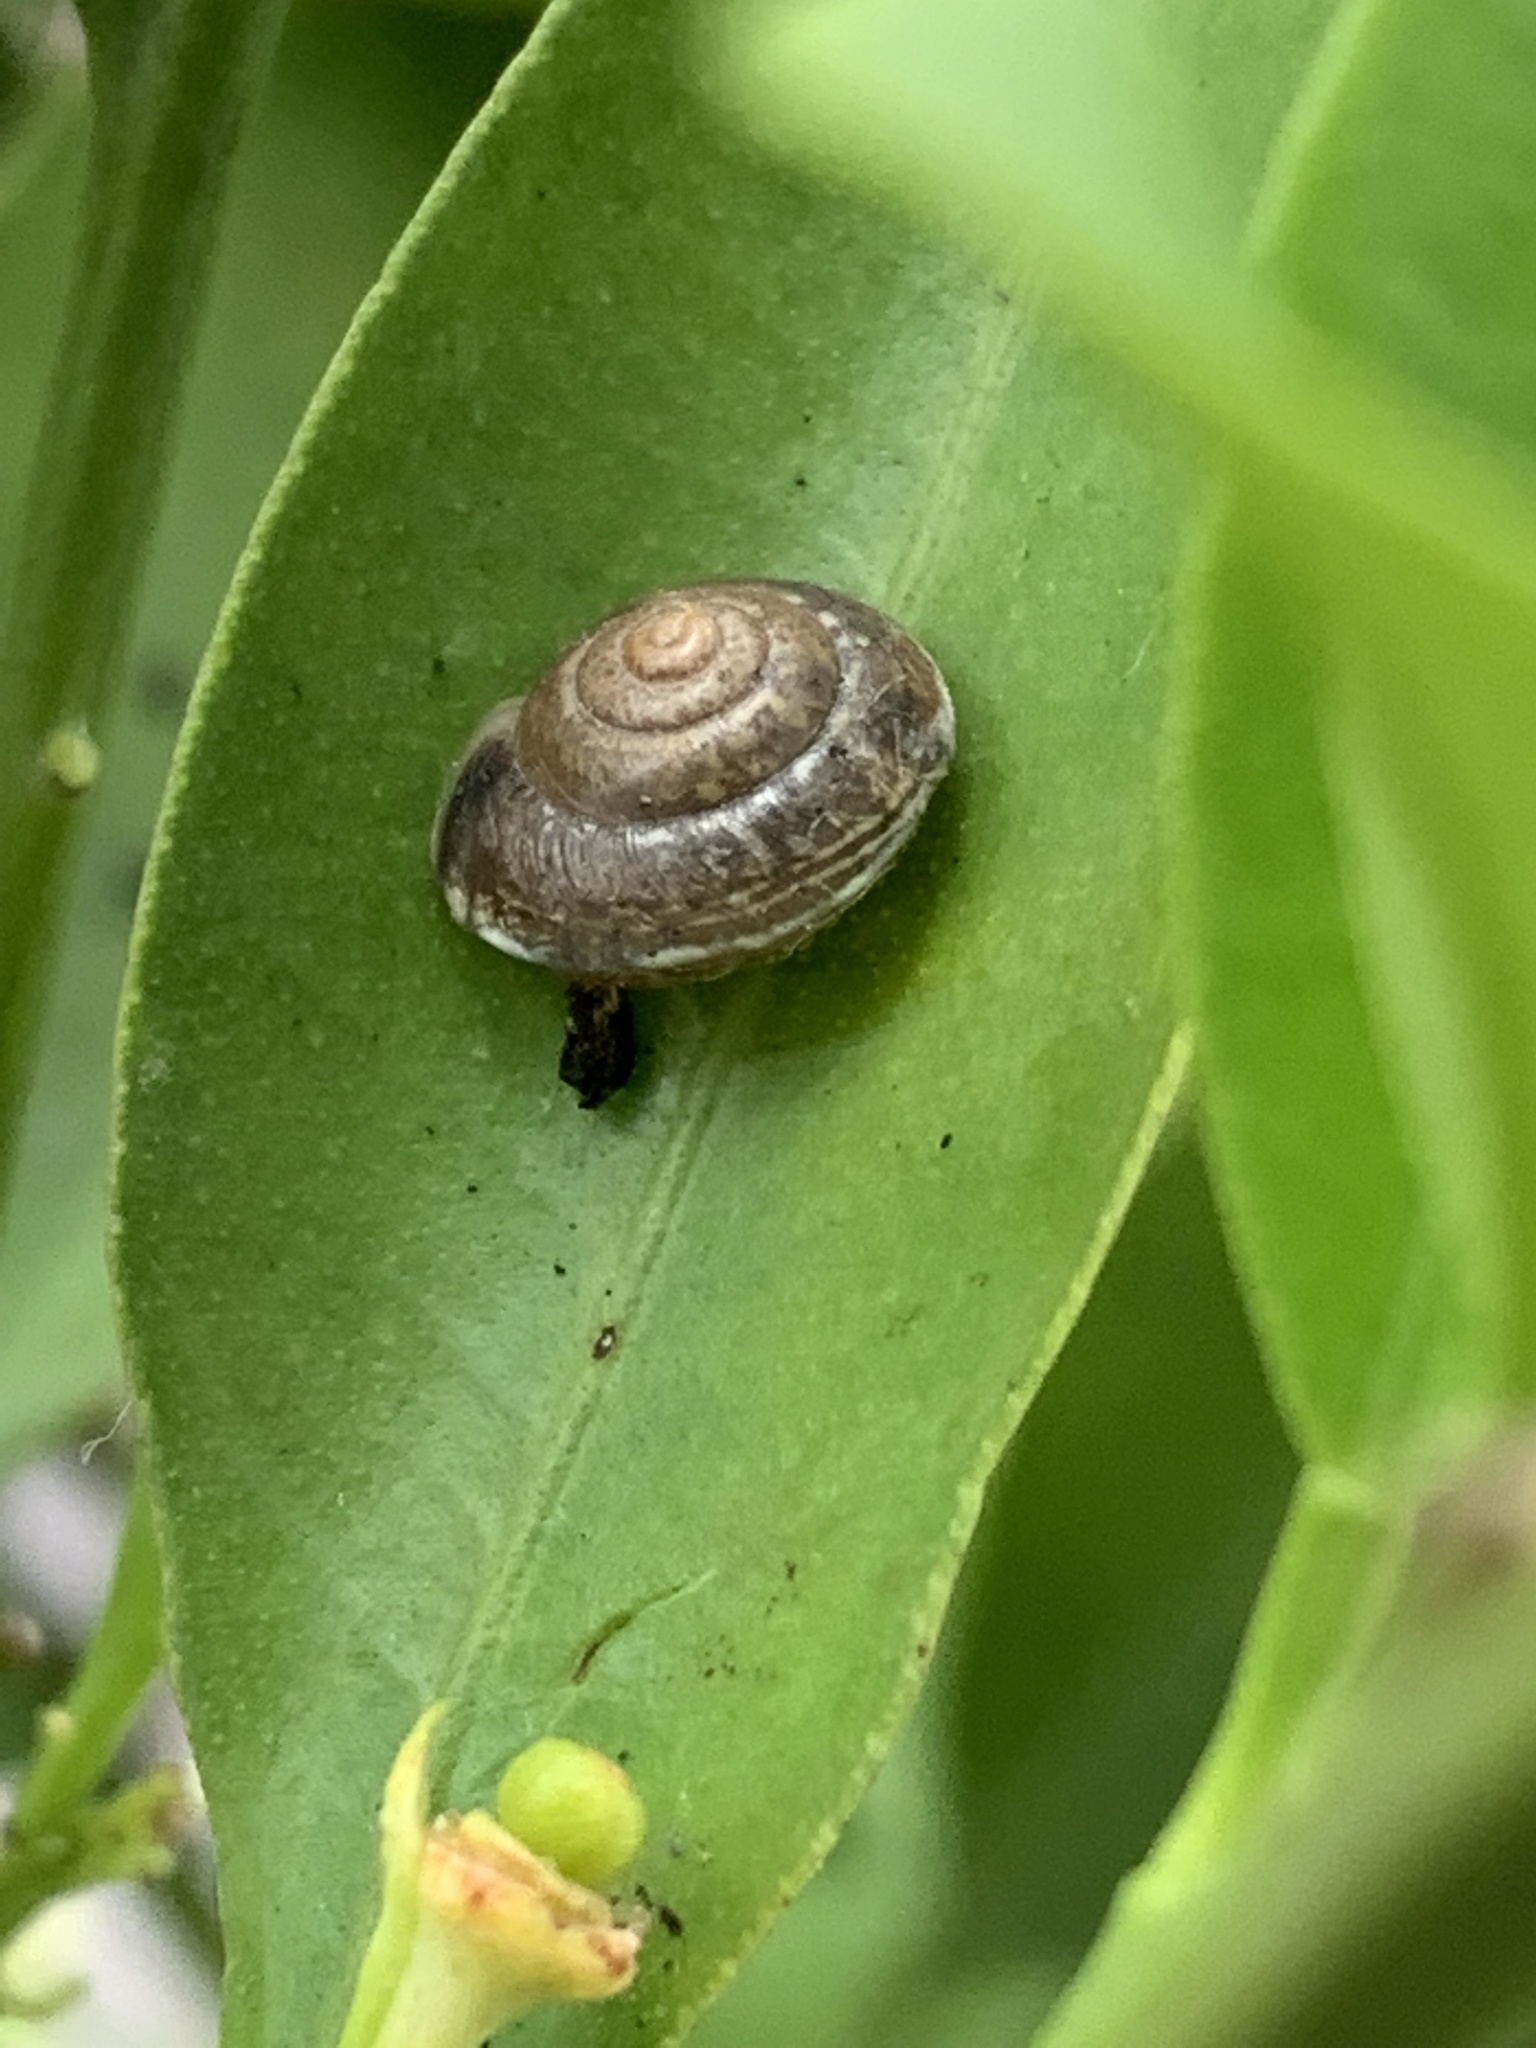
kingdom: Animalia
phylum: Mollusca
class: Gastropoda
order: Stylommatophora
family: Hygromiidae
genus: Hygromia
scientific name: Hygromia cinctella
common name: Girdled snail
